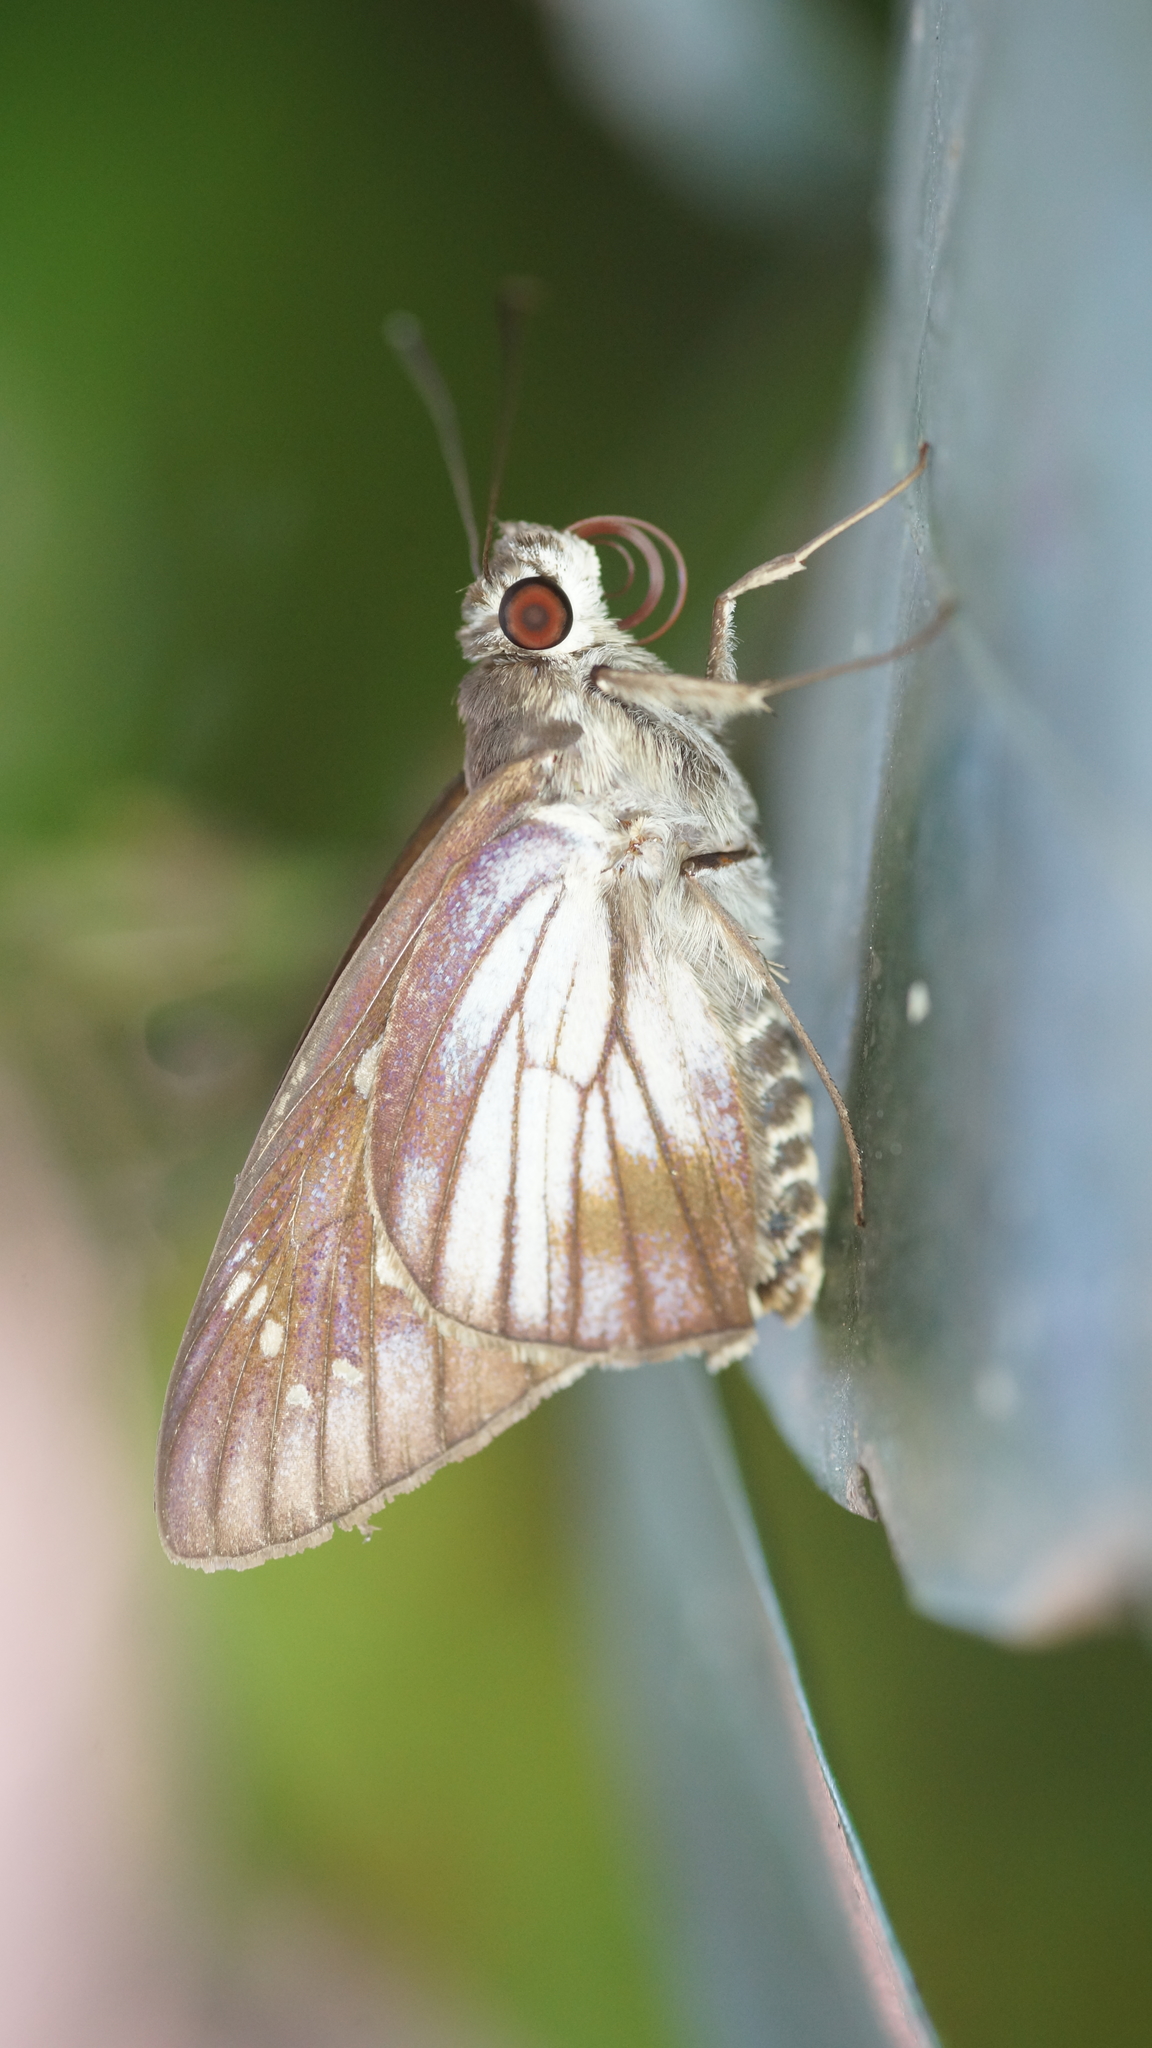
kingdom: Animalia
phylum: Arthropoda
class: Insecta
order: Lepidoptera
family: Hesperiidae
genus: Unkana
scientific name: Unkana ambasa
